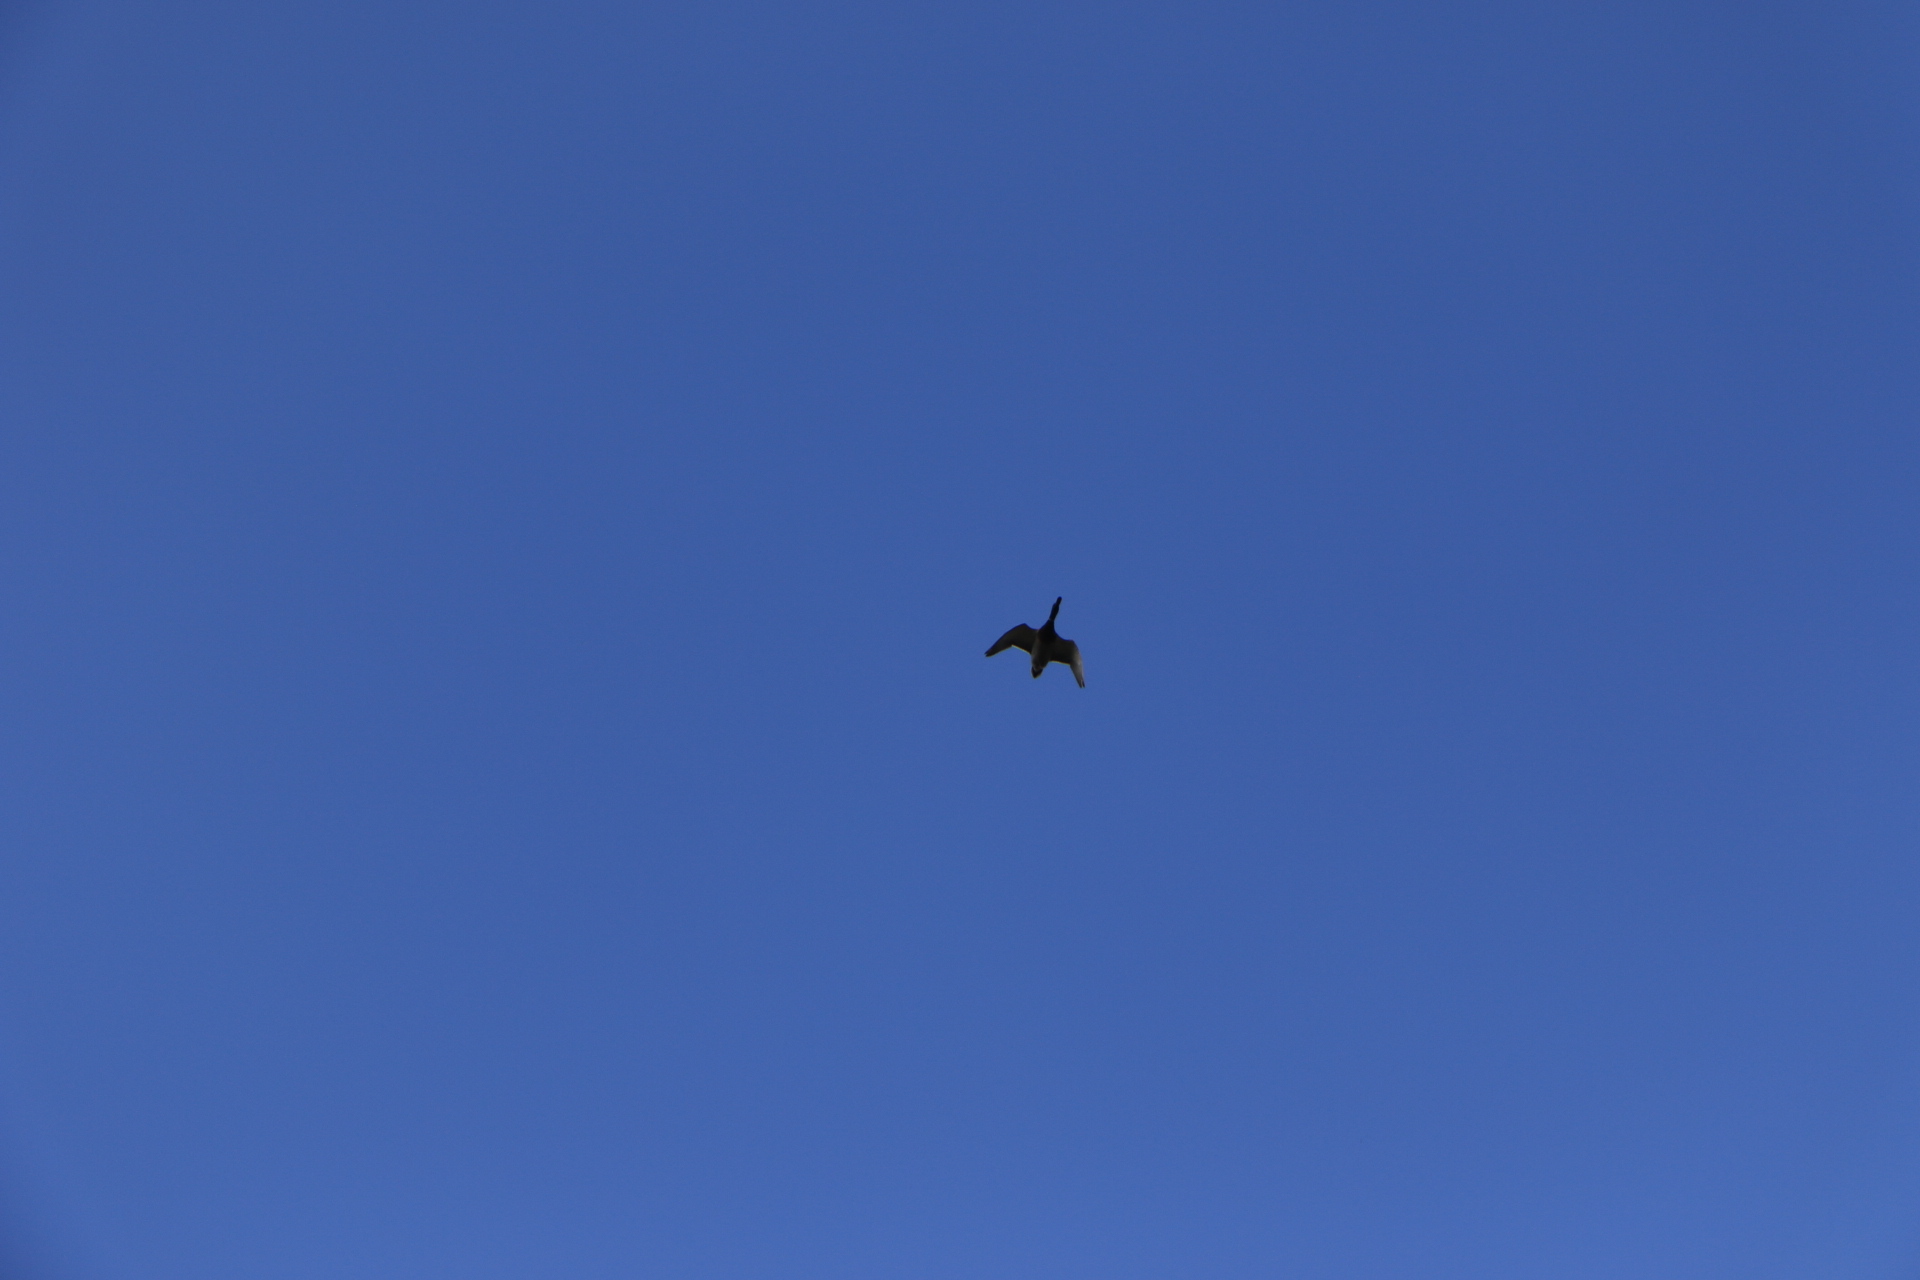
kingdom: Animalia
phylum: Chordata
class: Aves
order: Anseriformes
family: Anatidae
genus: Anas
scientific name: Anas platyrhynchos
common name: Mallard
